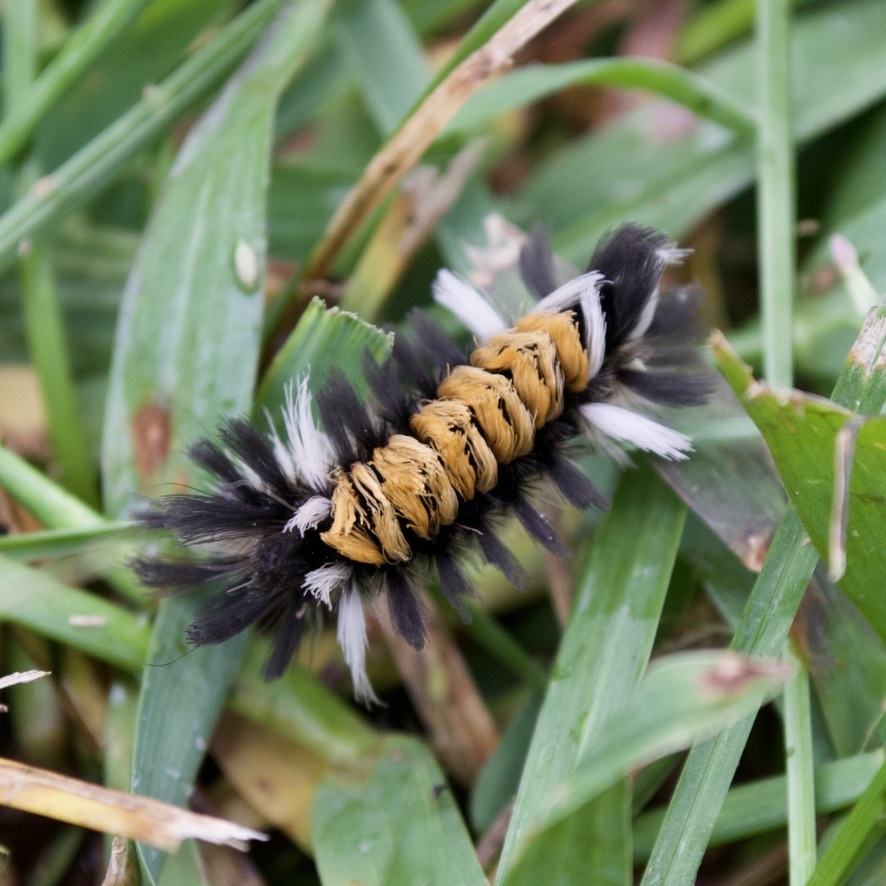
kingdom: Animalia
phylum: Arthropoda
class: Insecta
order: Lepidoptera
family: Erebidae
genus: Euchaetes
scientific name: Euchaetes egle
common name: Milkweed tussock moth
